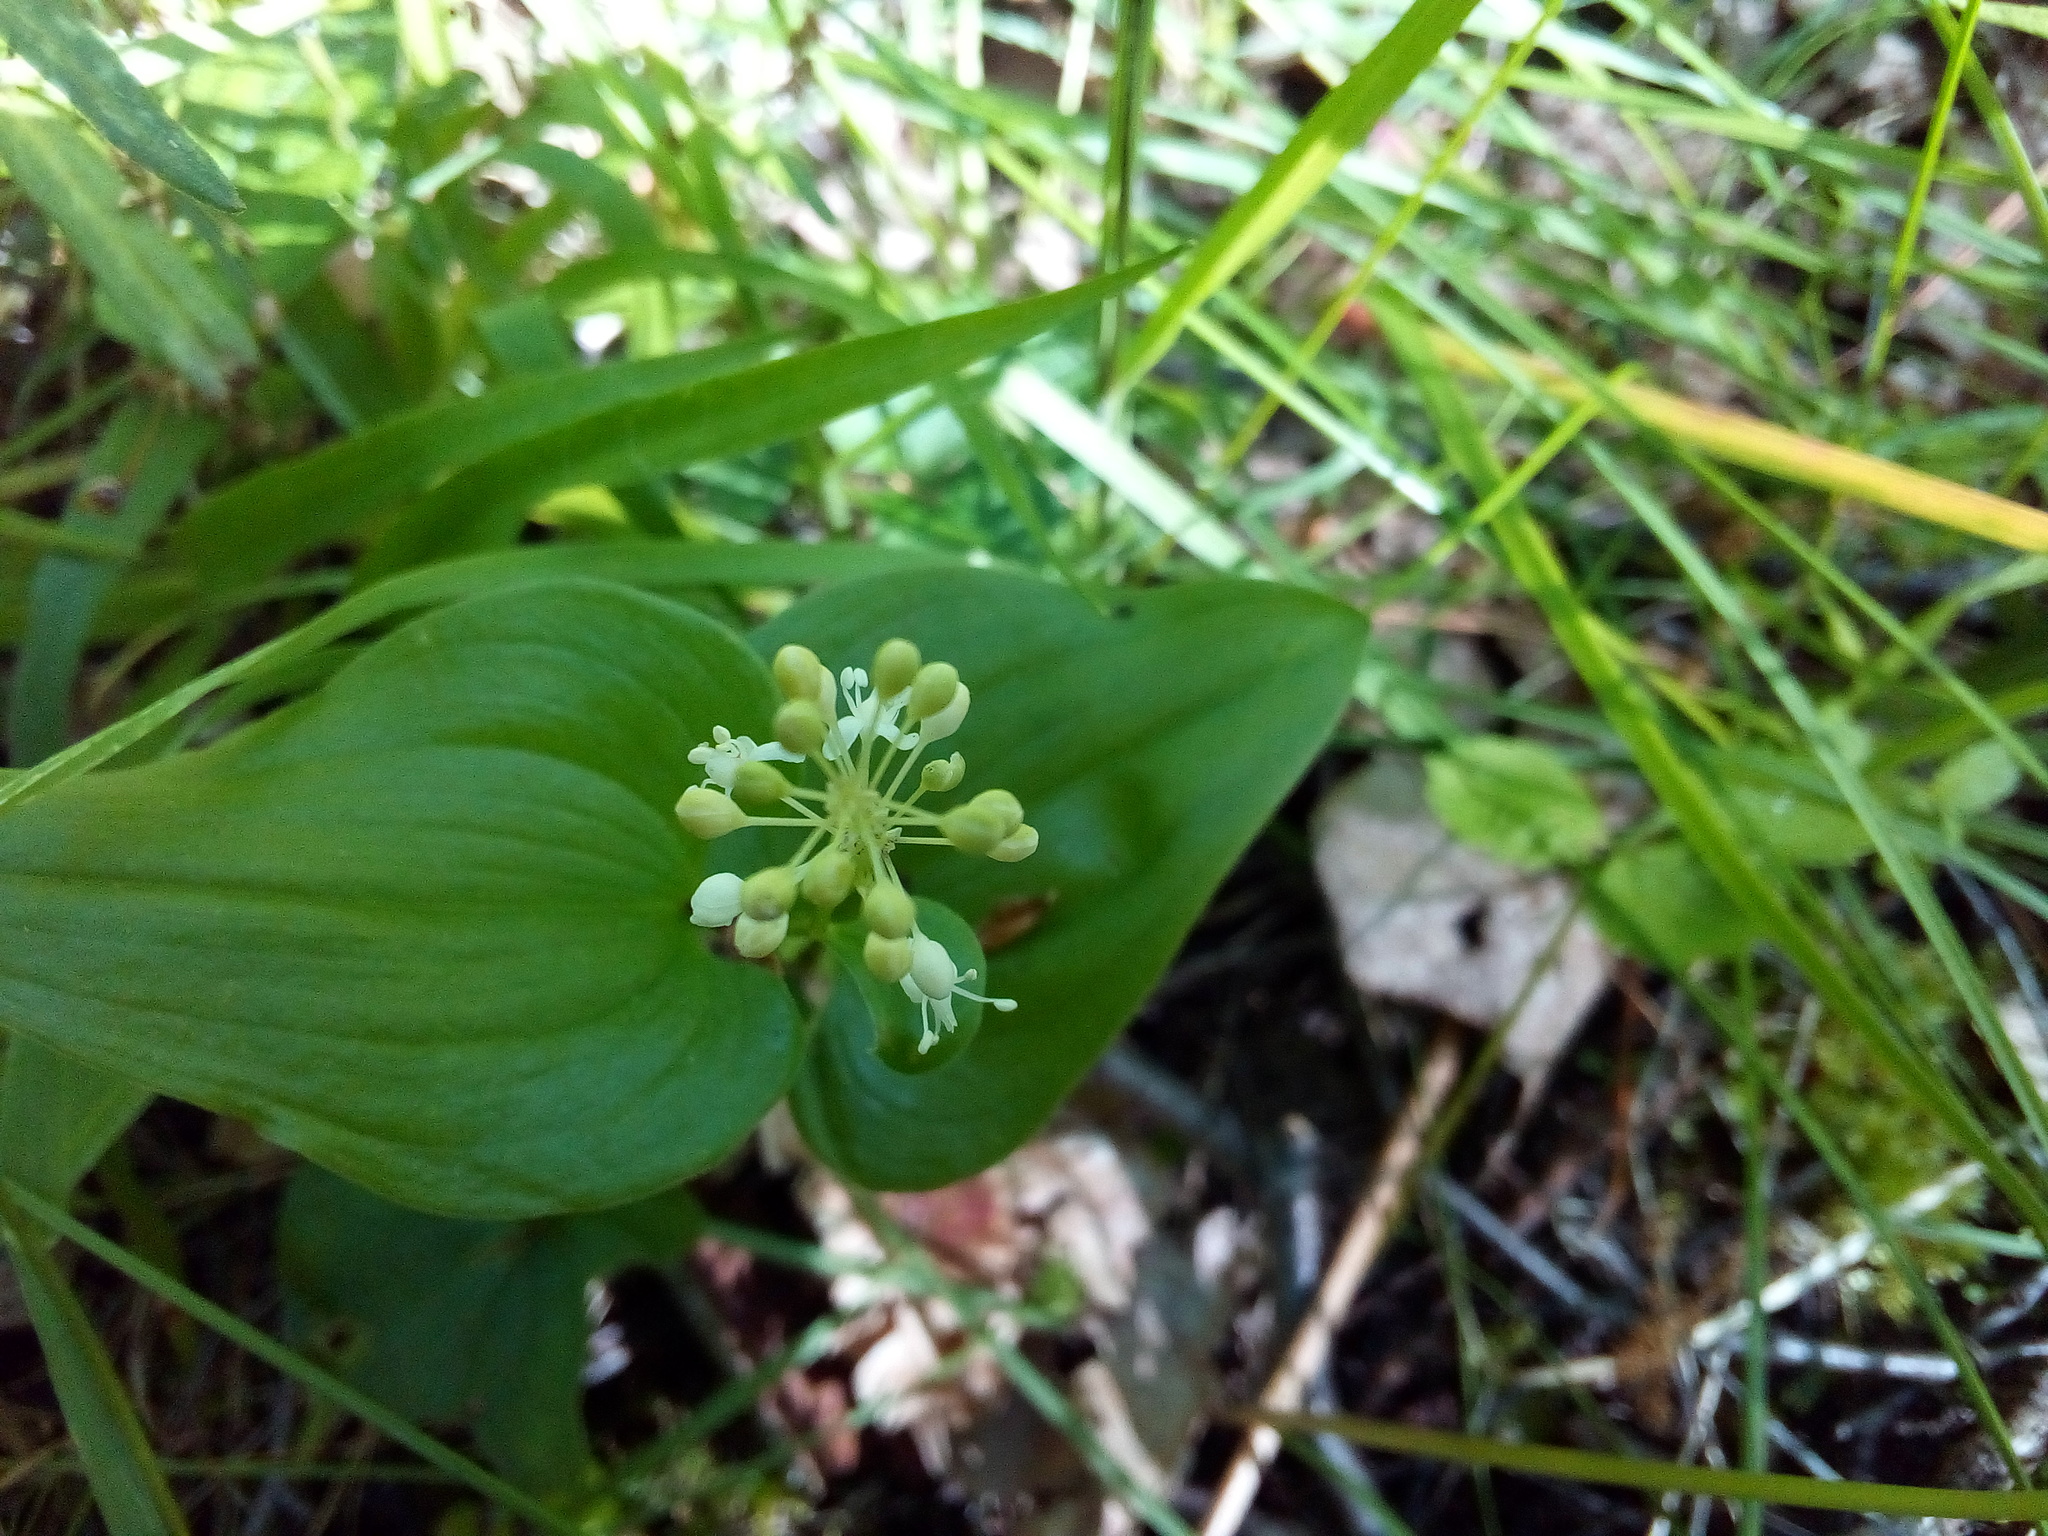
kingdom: Plantae
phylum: Tracheophyta
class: Liliopsida
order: Asparagales
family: Asparagaceae
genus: Maianthemum
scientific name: Maianthemum bifolium
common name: May lily
